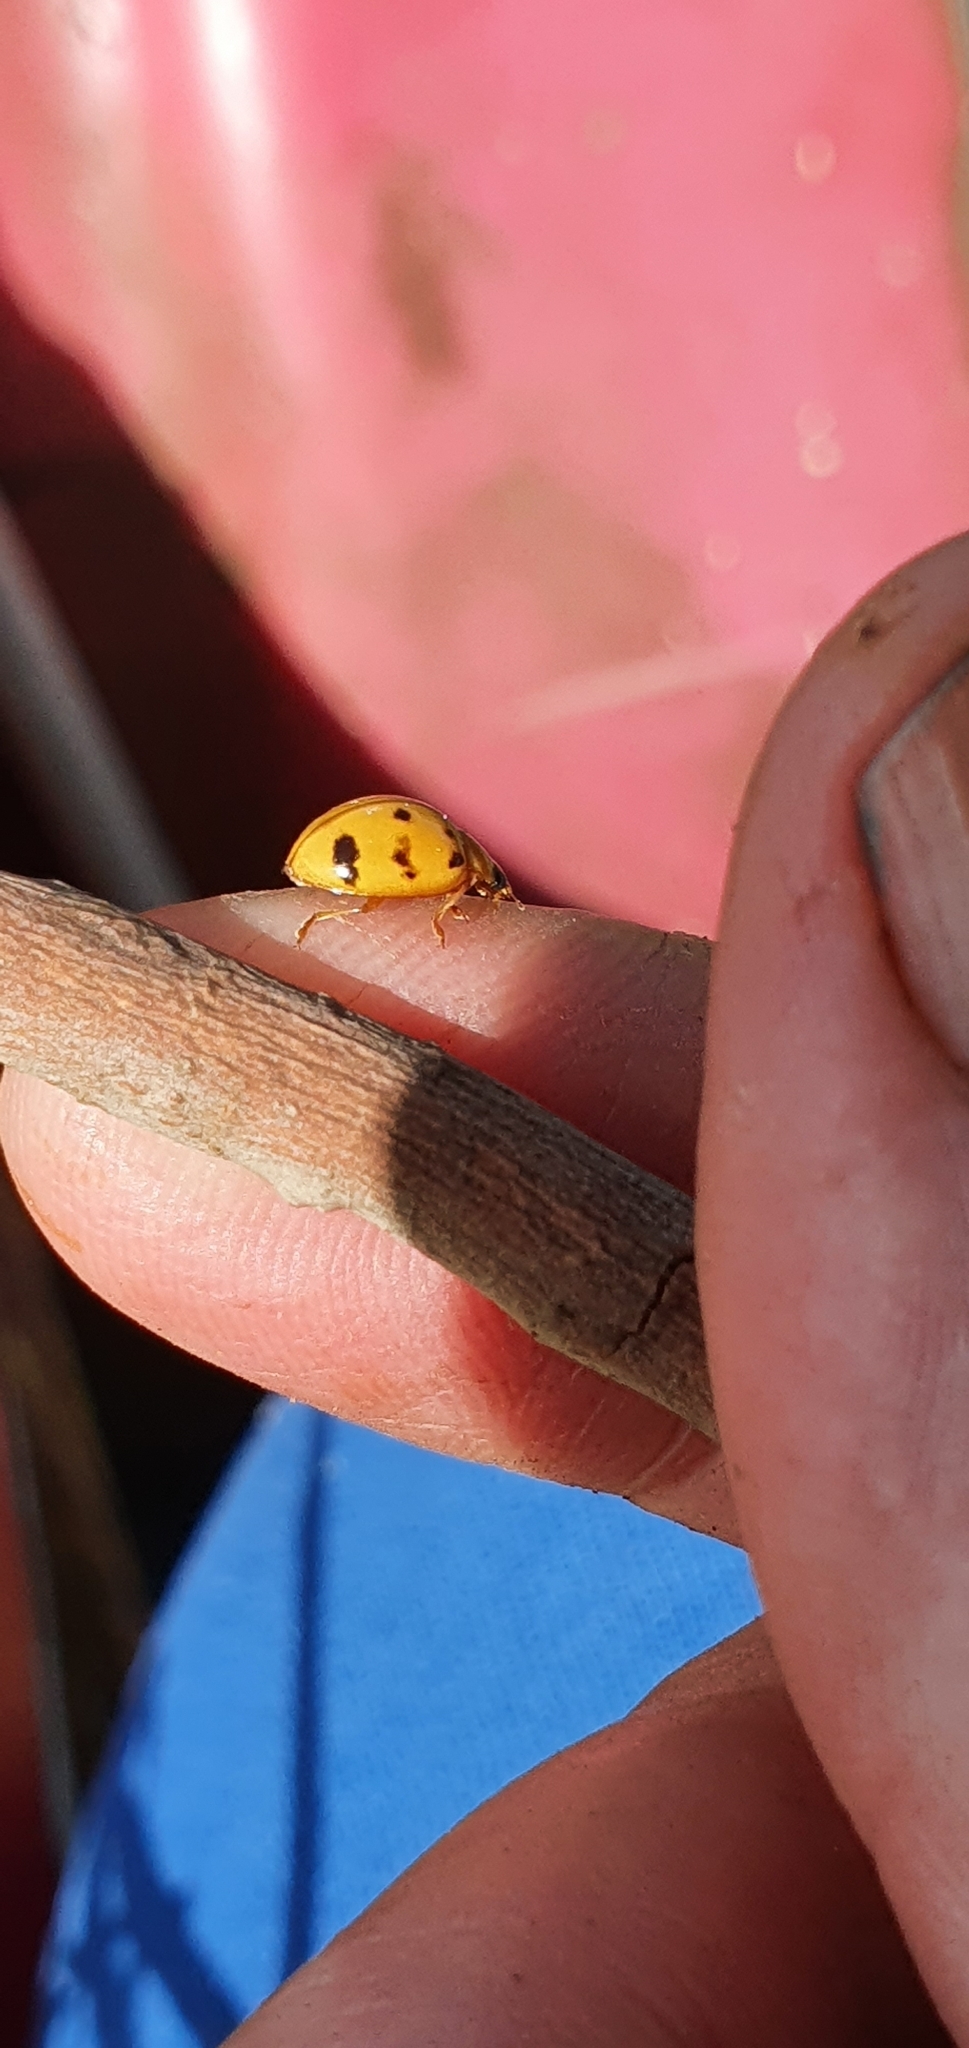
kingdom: Animalia
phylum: Arthropoda
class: Insecta
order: Coleoptera
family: Coccinellidae
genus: Harmonia
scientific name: Harmonia octomaculata
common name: Lady beetle
